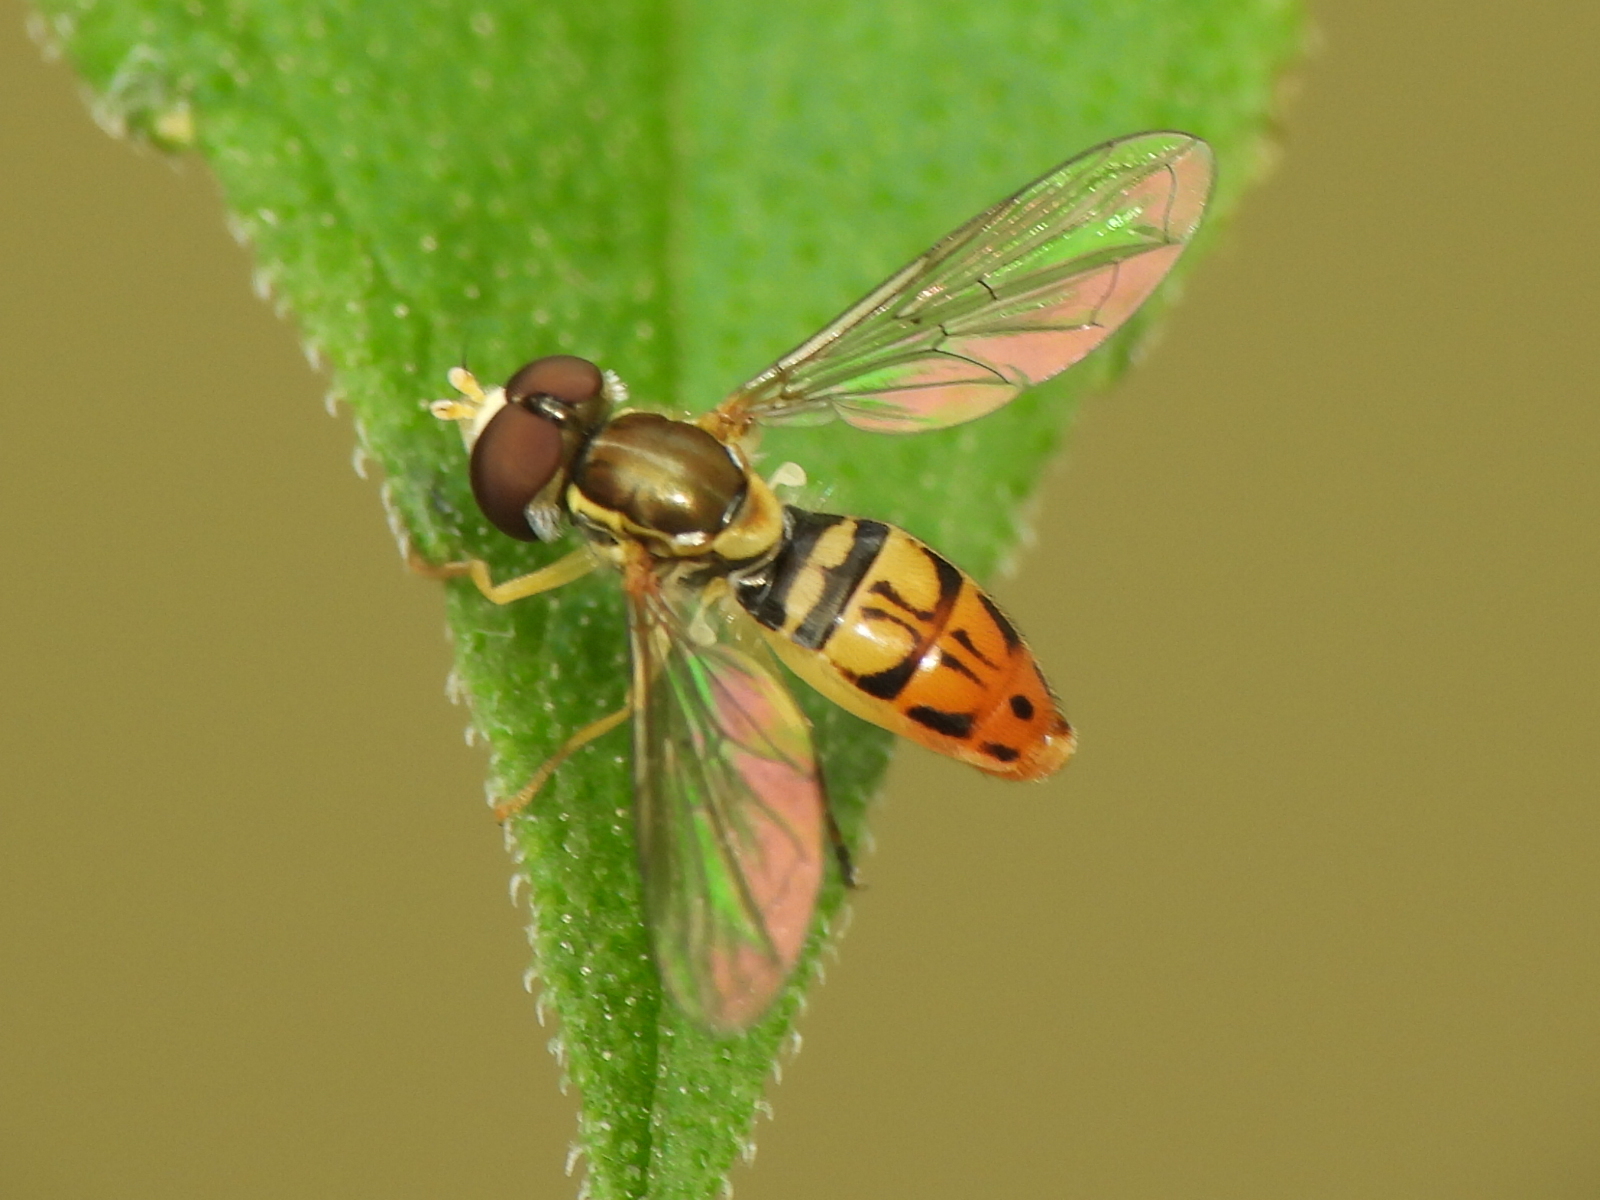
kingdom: Animalia
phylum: Arthropoda
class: Insecta
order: Diptera
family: Syrphidae
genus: Toxomerus
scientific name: Toxomerus marginatus
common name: Syrphid fly
